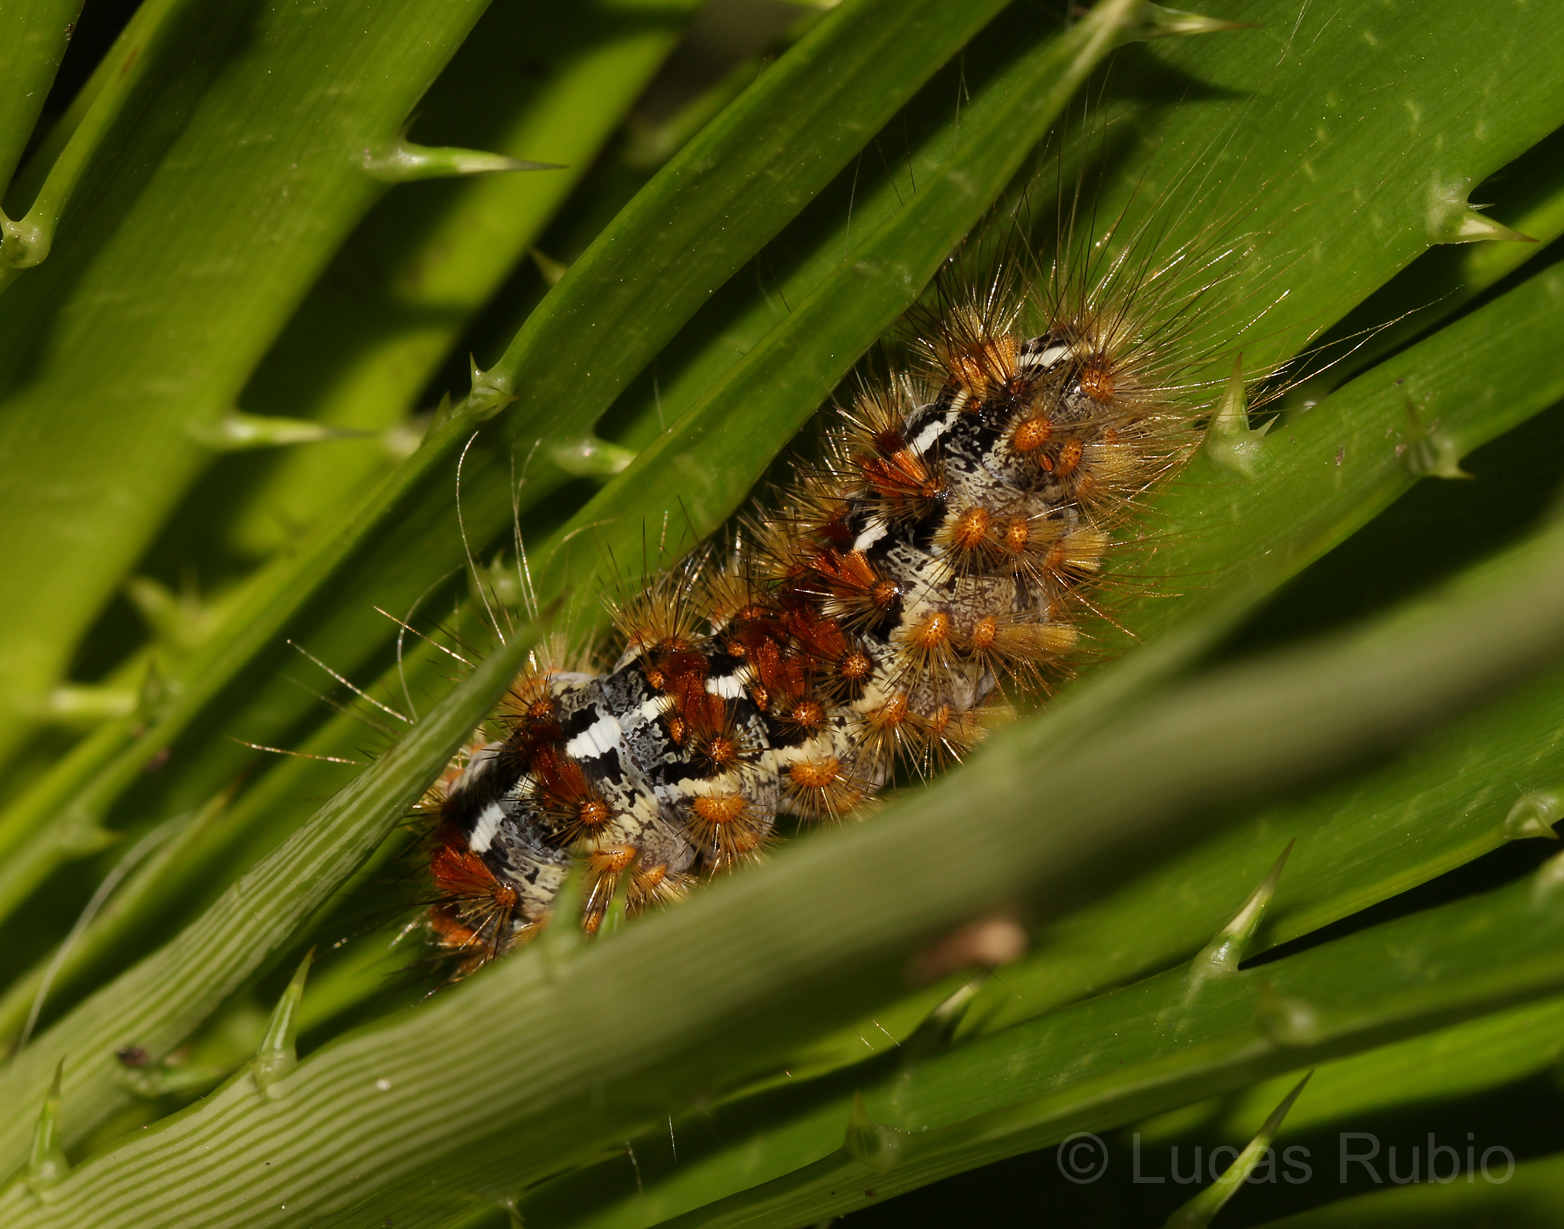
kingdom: Animalia
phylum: Arthropoda
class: Insecta
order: Lepidoptera
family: Erebidae
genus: Paracles
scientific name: Paracles deserticola
